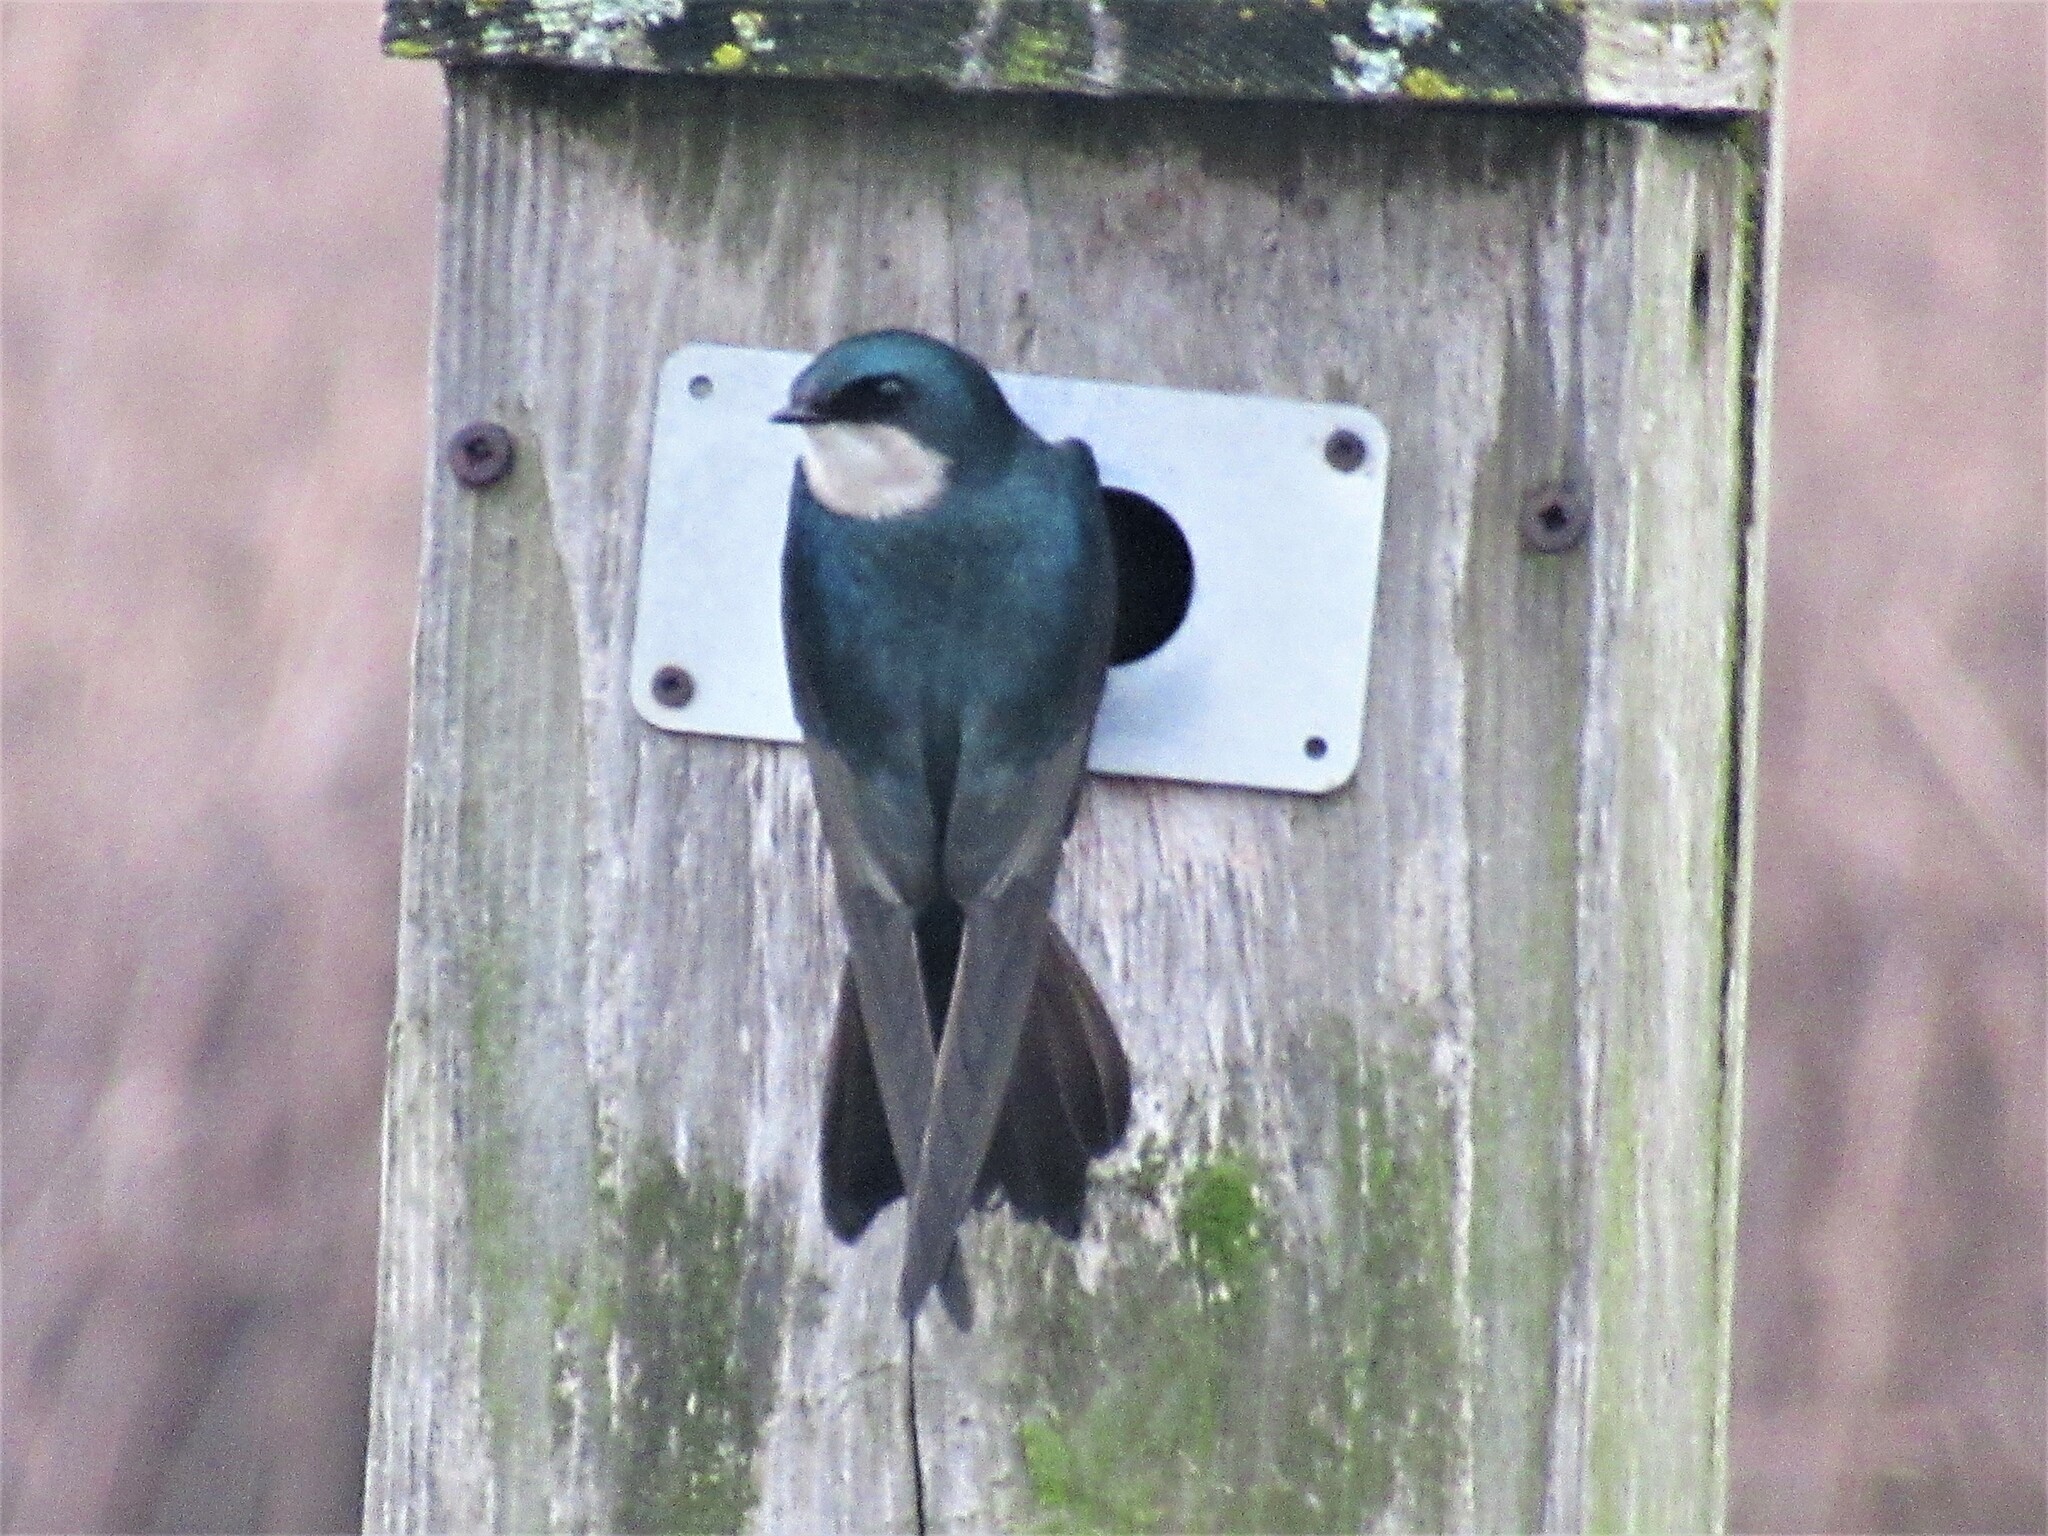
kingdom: Animalia
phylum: Chordata
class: Aves
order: Passeriformes
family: Hirundinidae
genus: Tachycineta
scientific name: Tachycineta bicolor
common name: Tree swallow
